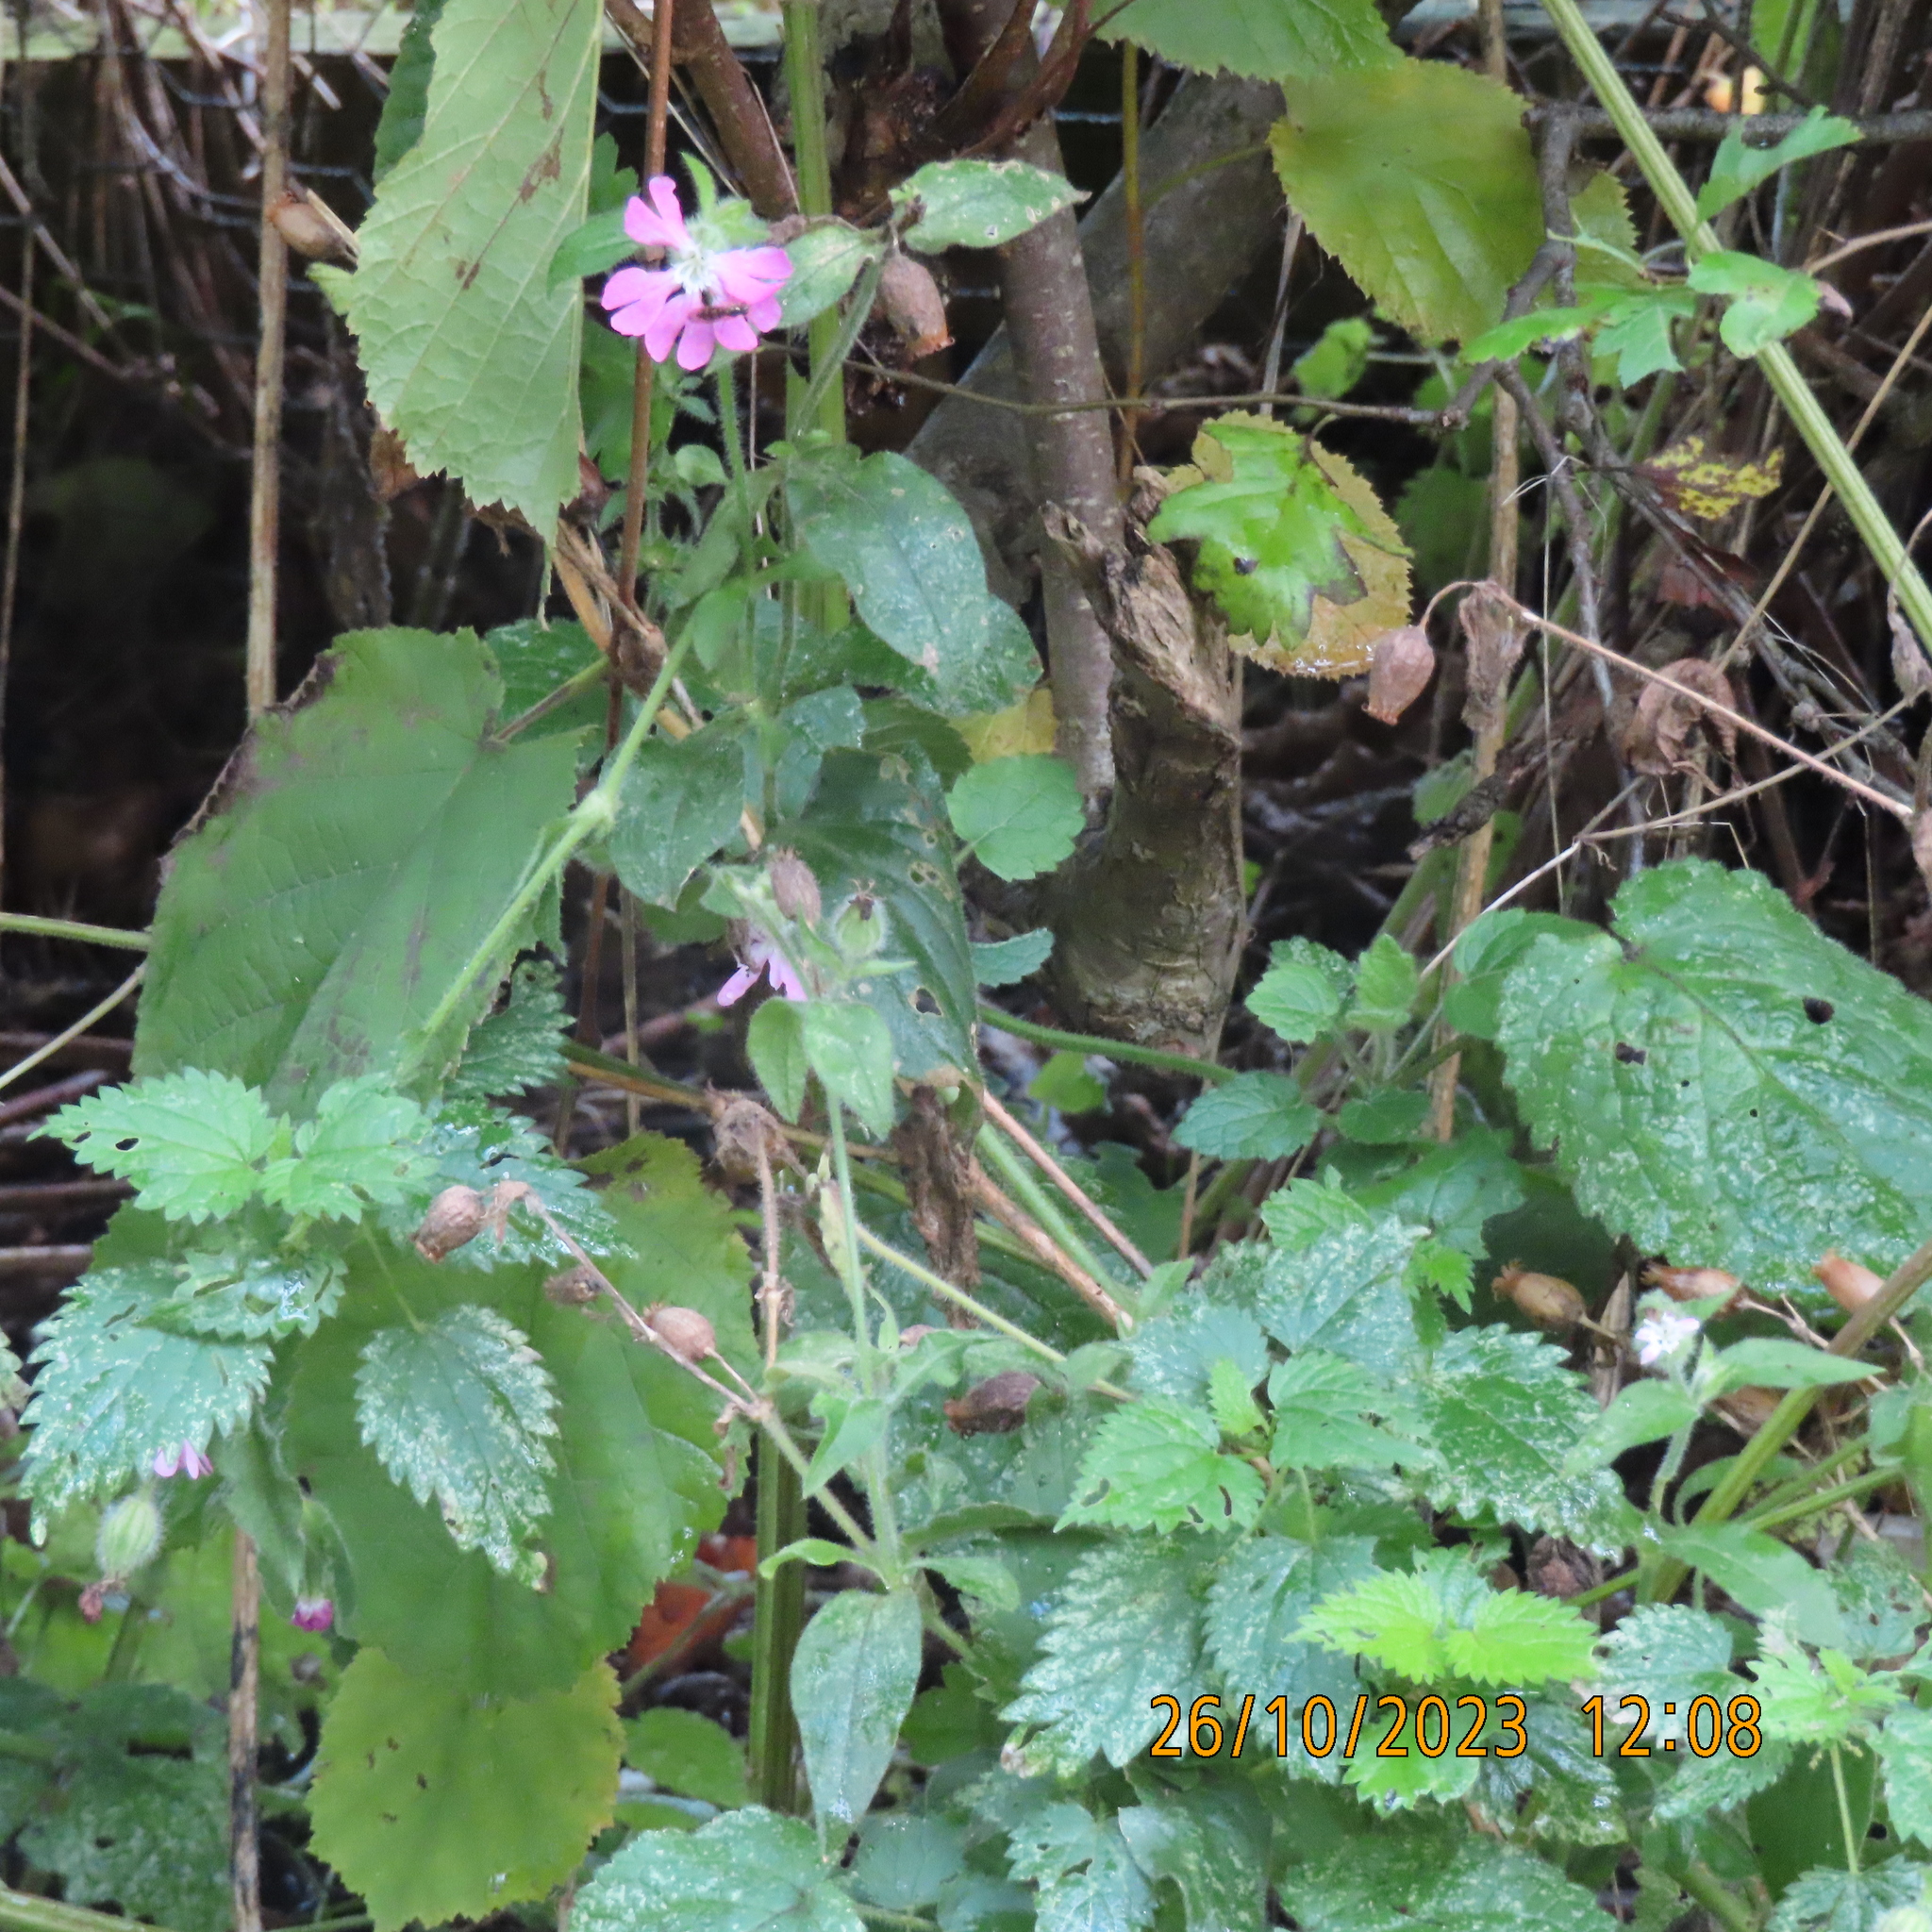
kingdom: Plantae
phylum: Tracheophyta
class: Magnoliopsida
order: Caryophyllales
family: Caryophyllaceae
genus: Silene
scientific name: Silene dioica
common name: Red campion
